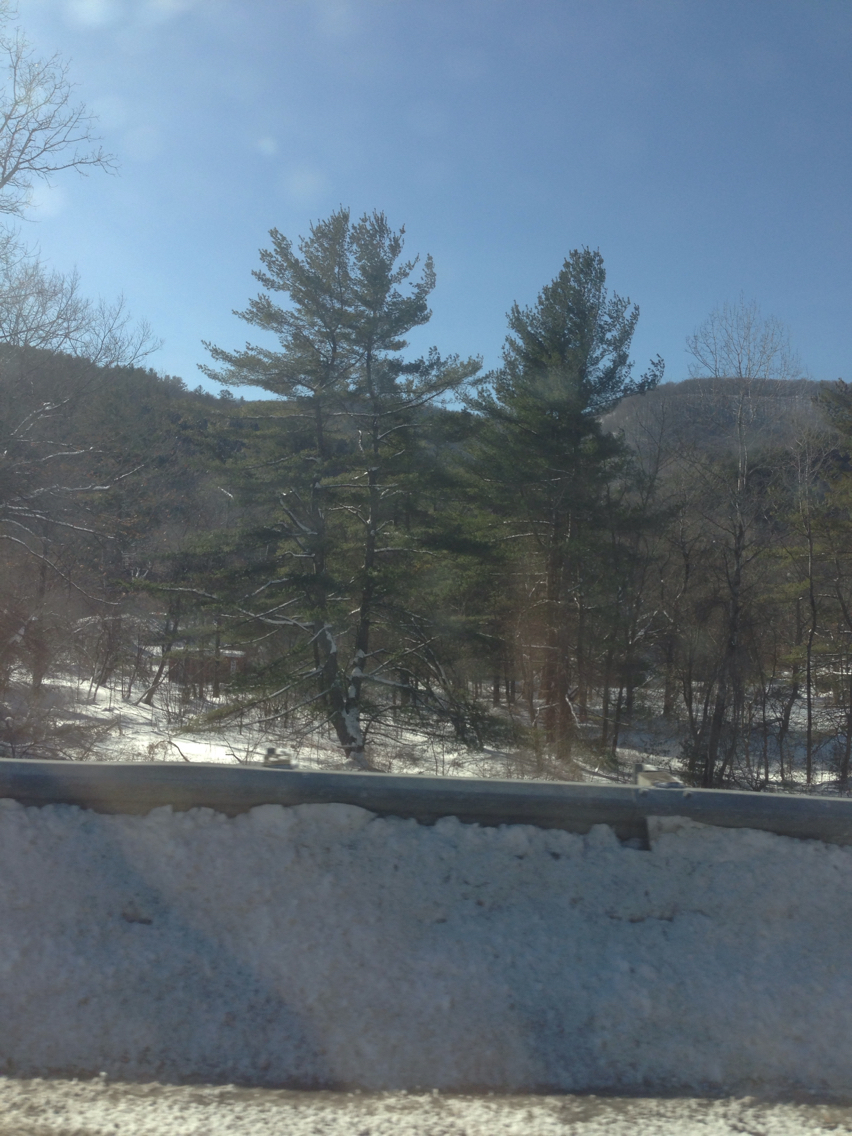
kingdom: Plantae
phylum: Tracheophyta
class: Pinopsida
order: Pinales
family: Pinaceae
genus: Pinus
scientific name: Pinus strobus
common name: Weymouth pine
